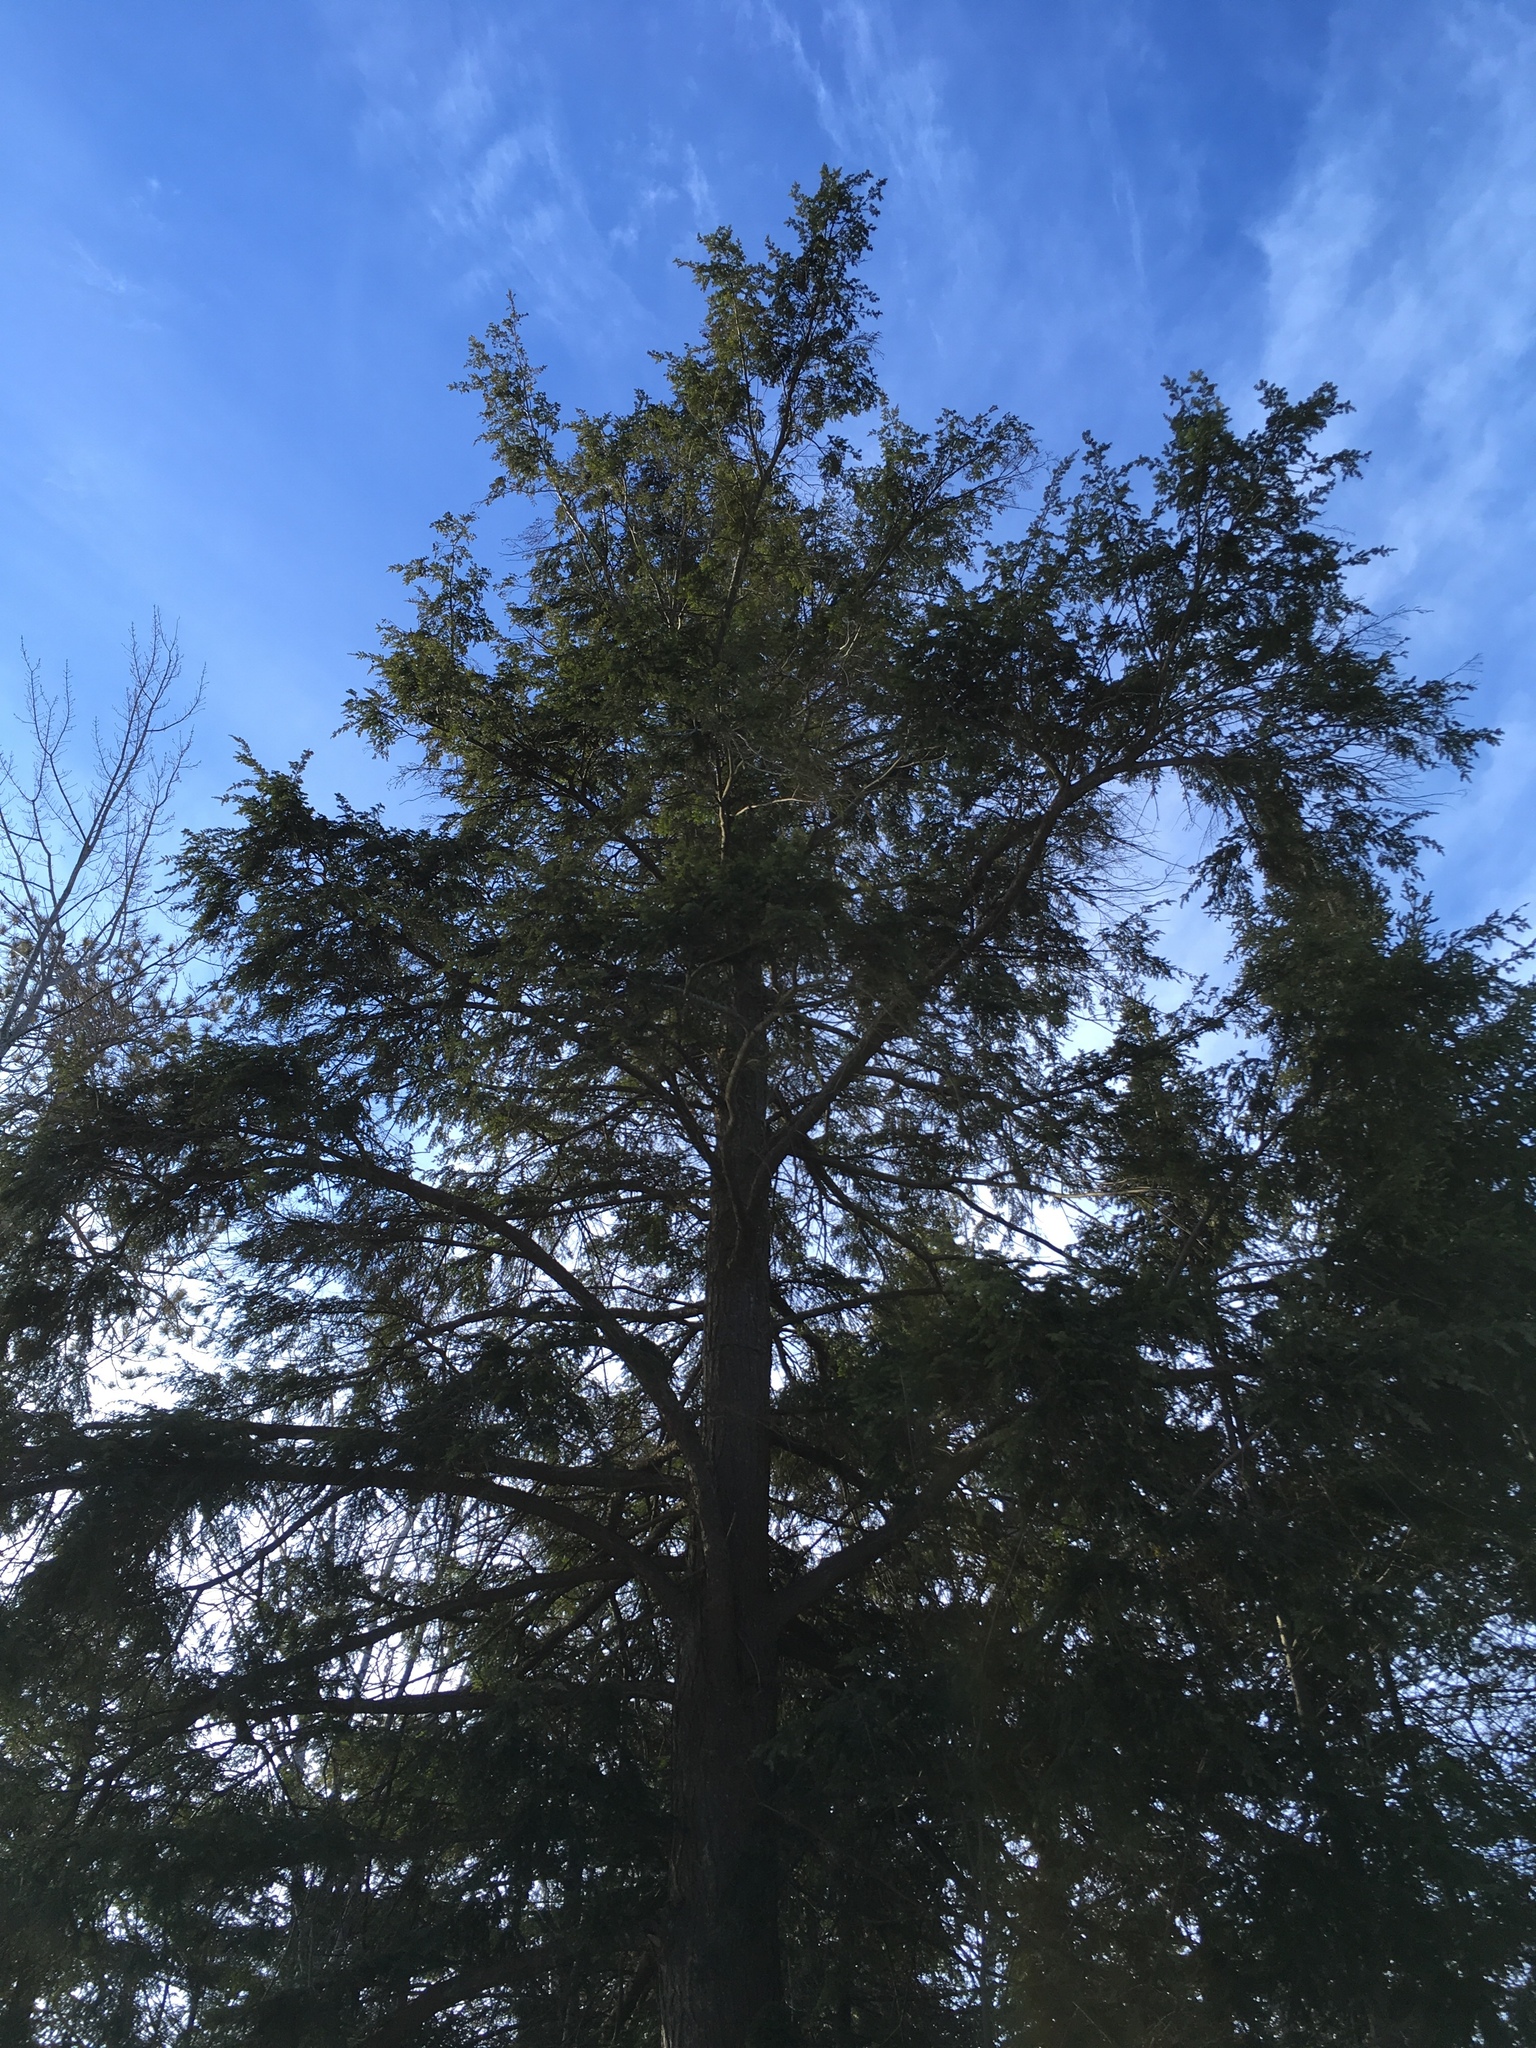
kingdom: Plantae
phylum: Tracheophyta
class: Pinopsida
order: Pinales
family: Pinaceae
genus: Tsuga
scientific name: Tsuga canadensis
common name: Eastern hemlock
